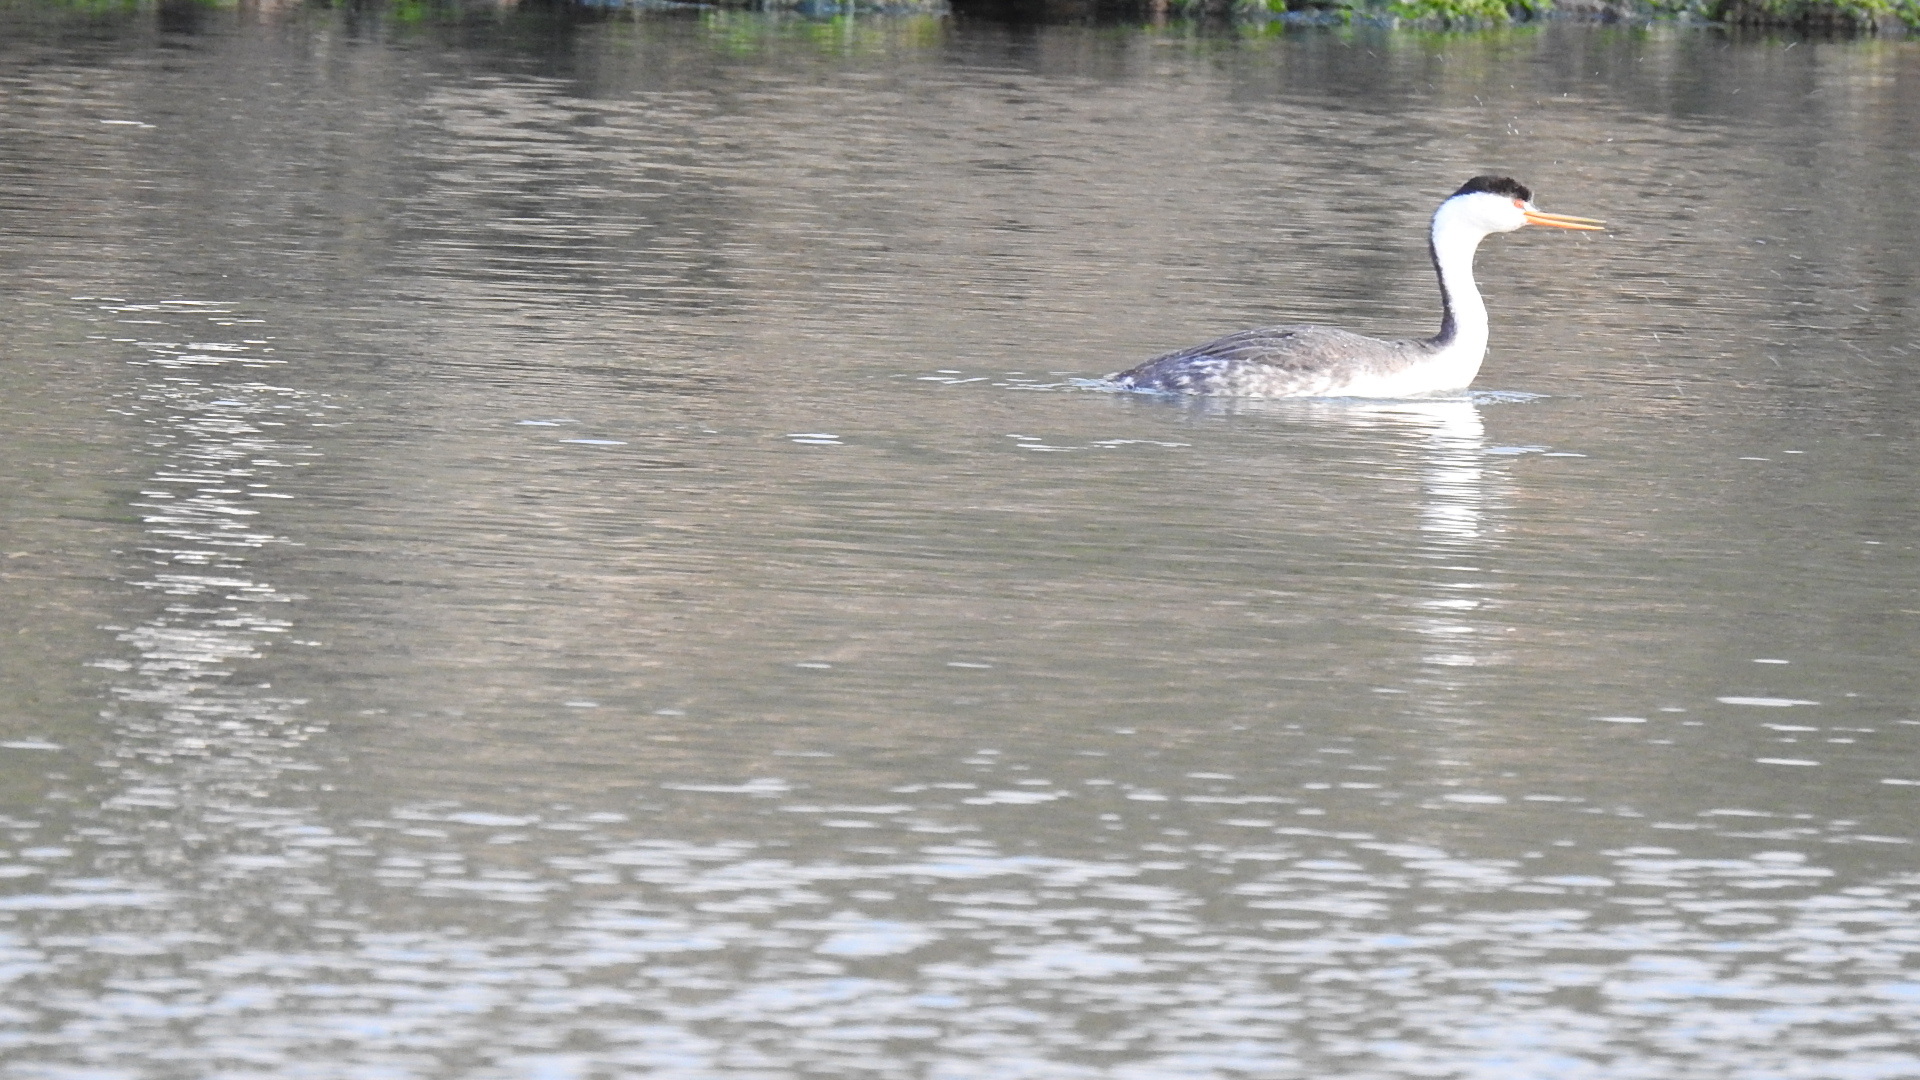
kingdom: Animalia
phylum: Chordata
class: Aves
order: Podicipediformes
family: Podicipedidae
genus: Aechmophorus
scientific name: Aechmophorus clarkii
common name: Clark's grebe
